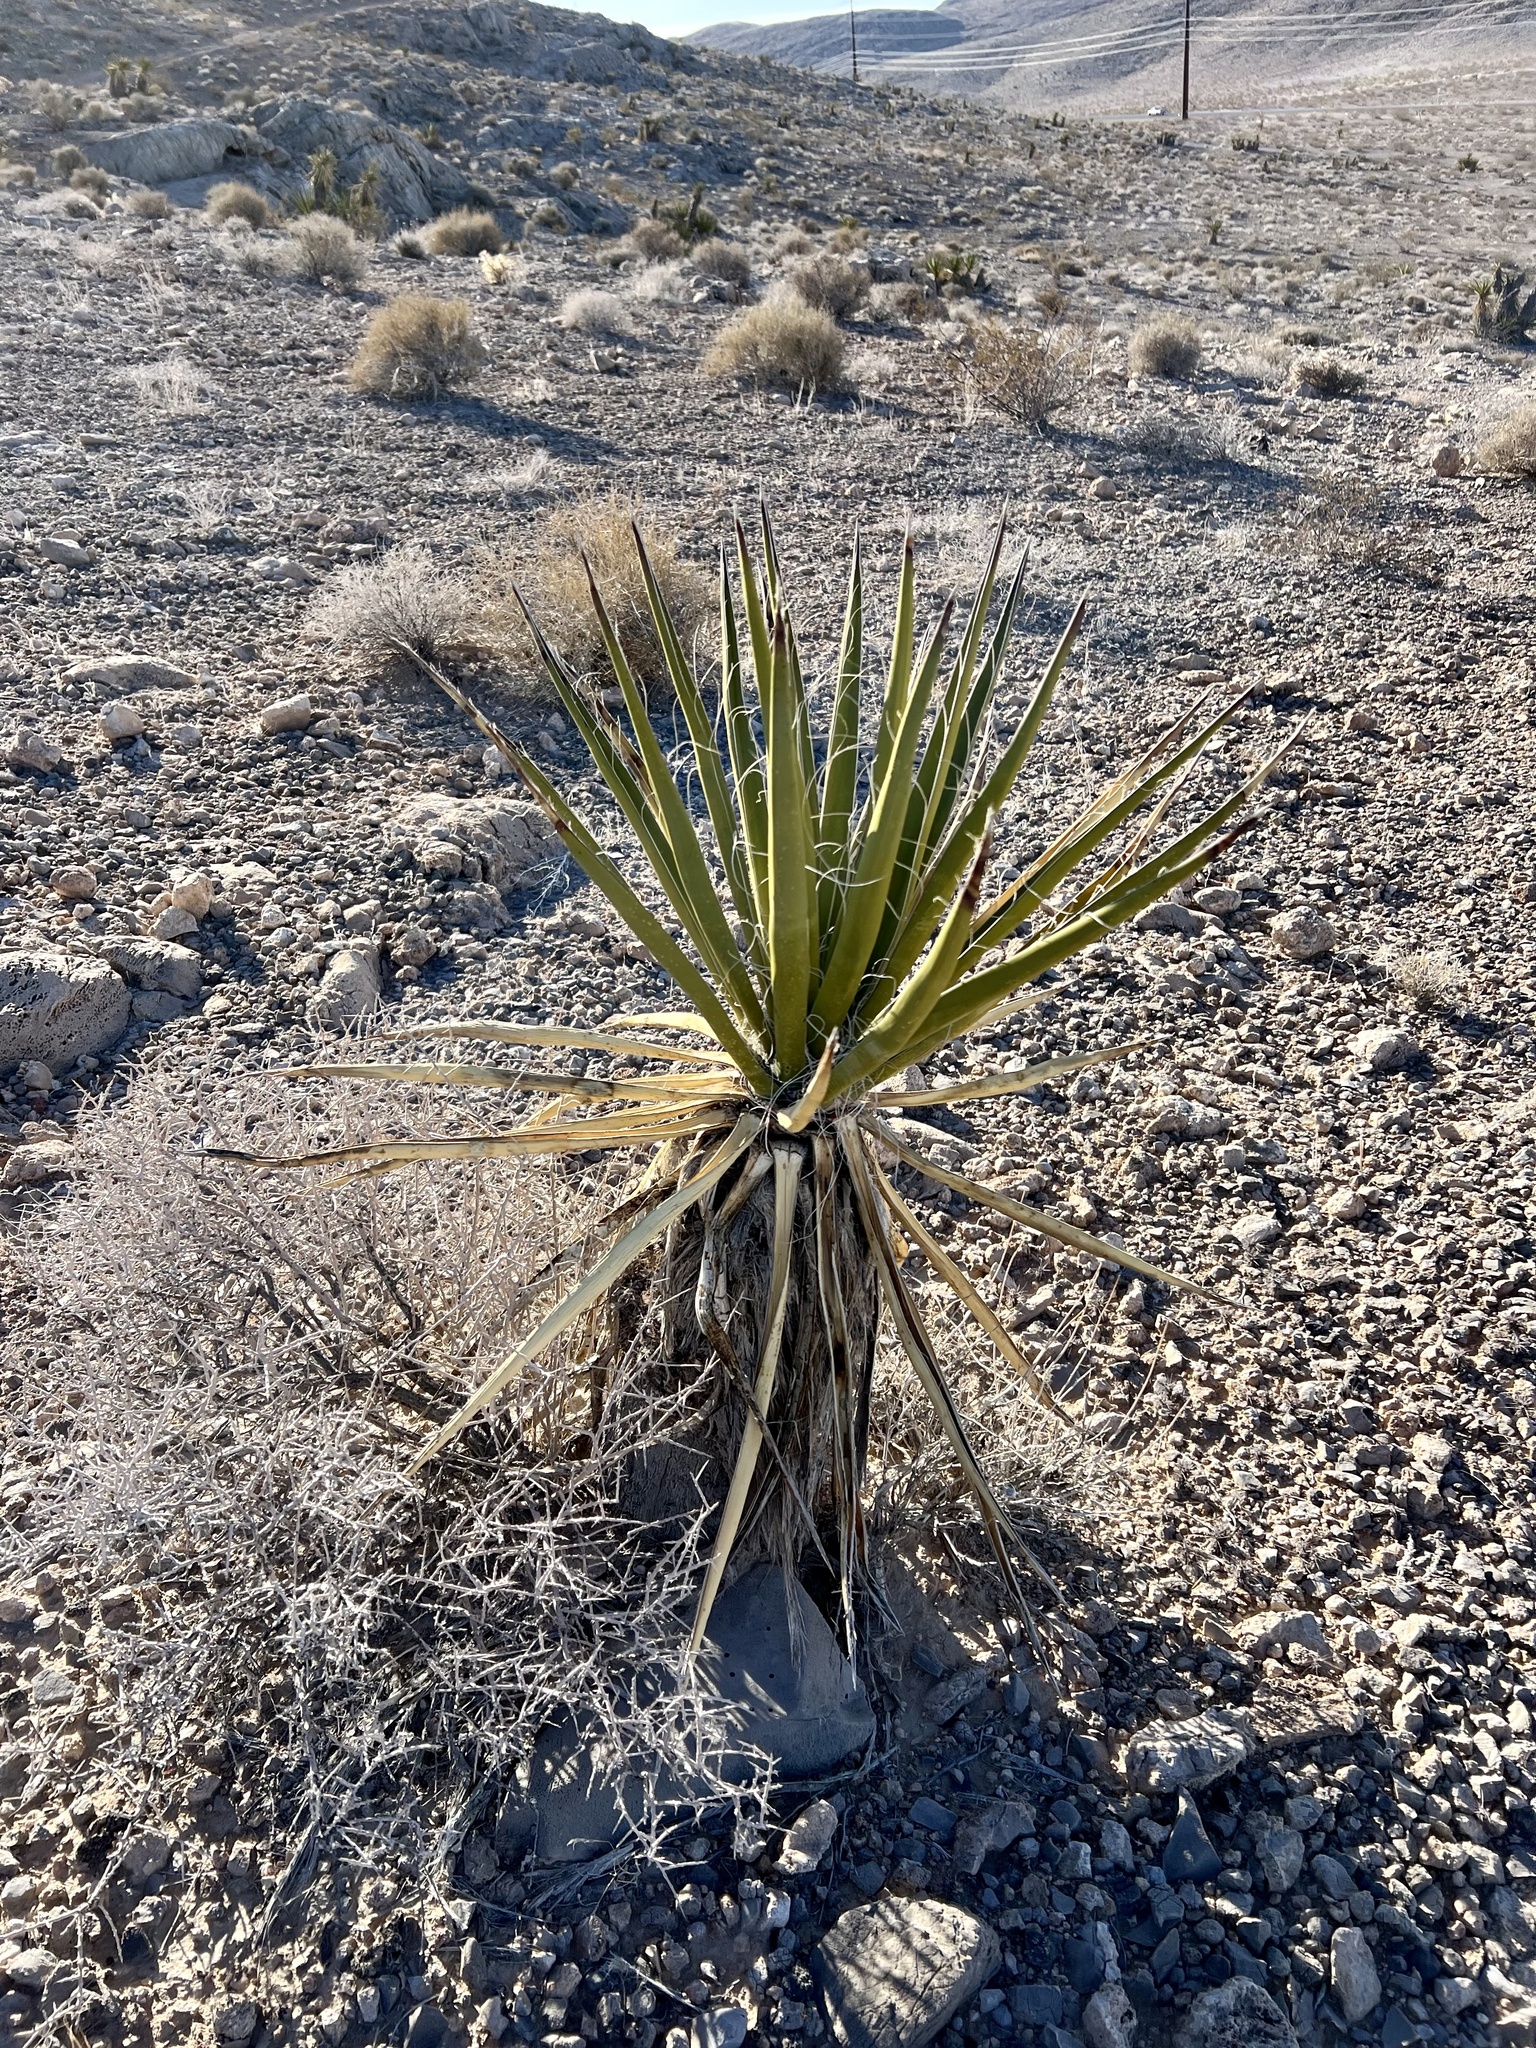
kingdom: Plantae
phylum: Tracheophyta
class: Liliopsida
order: Asparagales
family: Asparagaceae
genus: Yucca
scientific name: Yucca schidigera
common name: Mojave yucca
